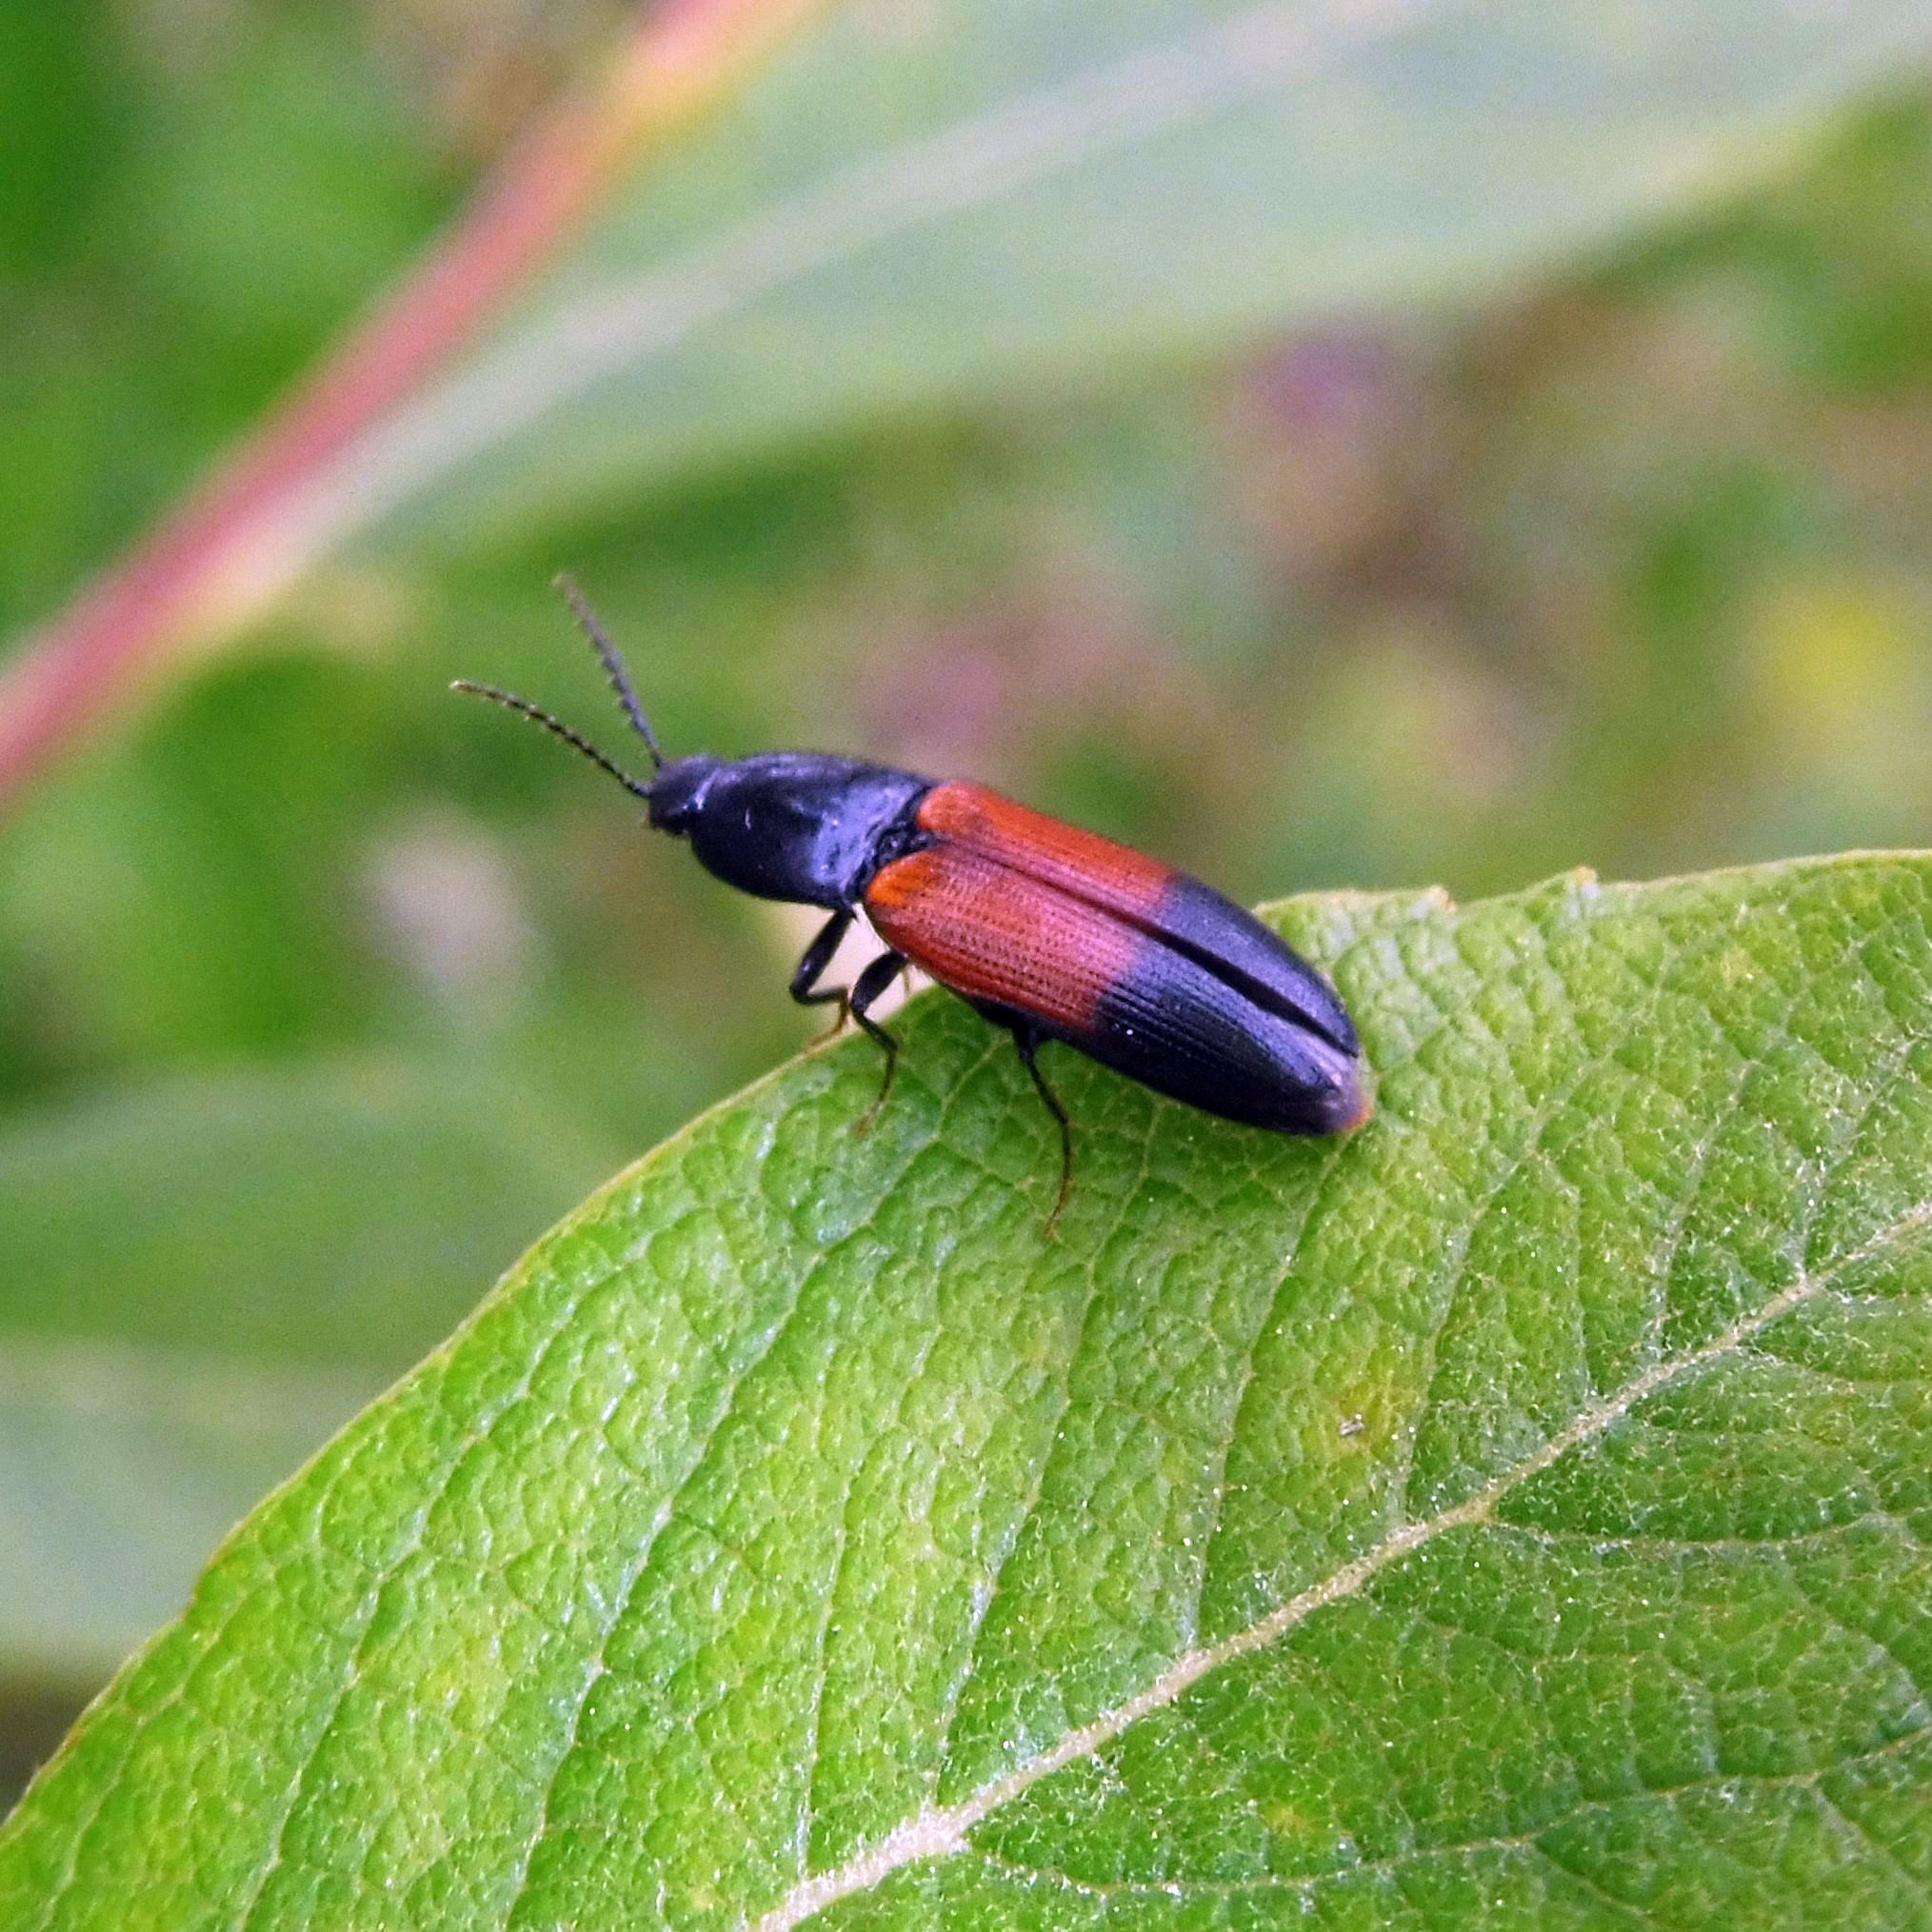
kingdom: Animalia
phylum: Arthropoda
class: Insecta
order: Coleoptera
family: Elateridae
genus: Ampedus
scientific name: Ampedus balteatus
